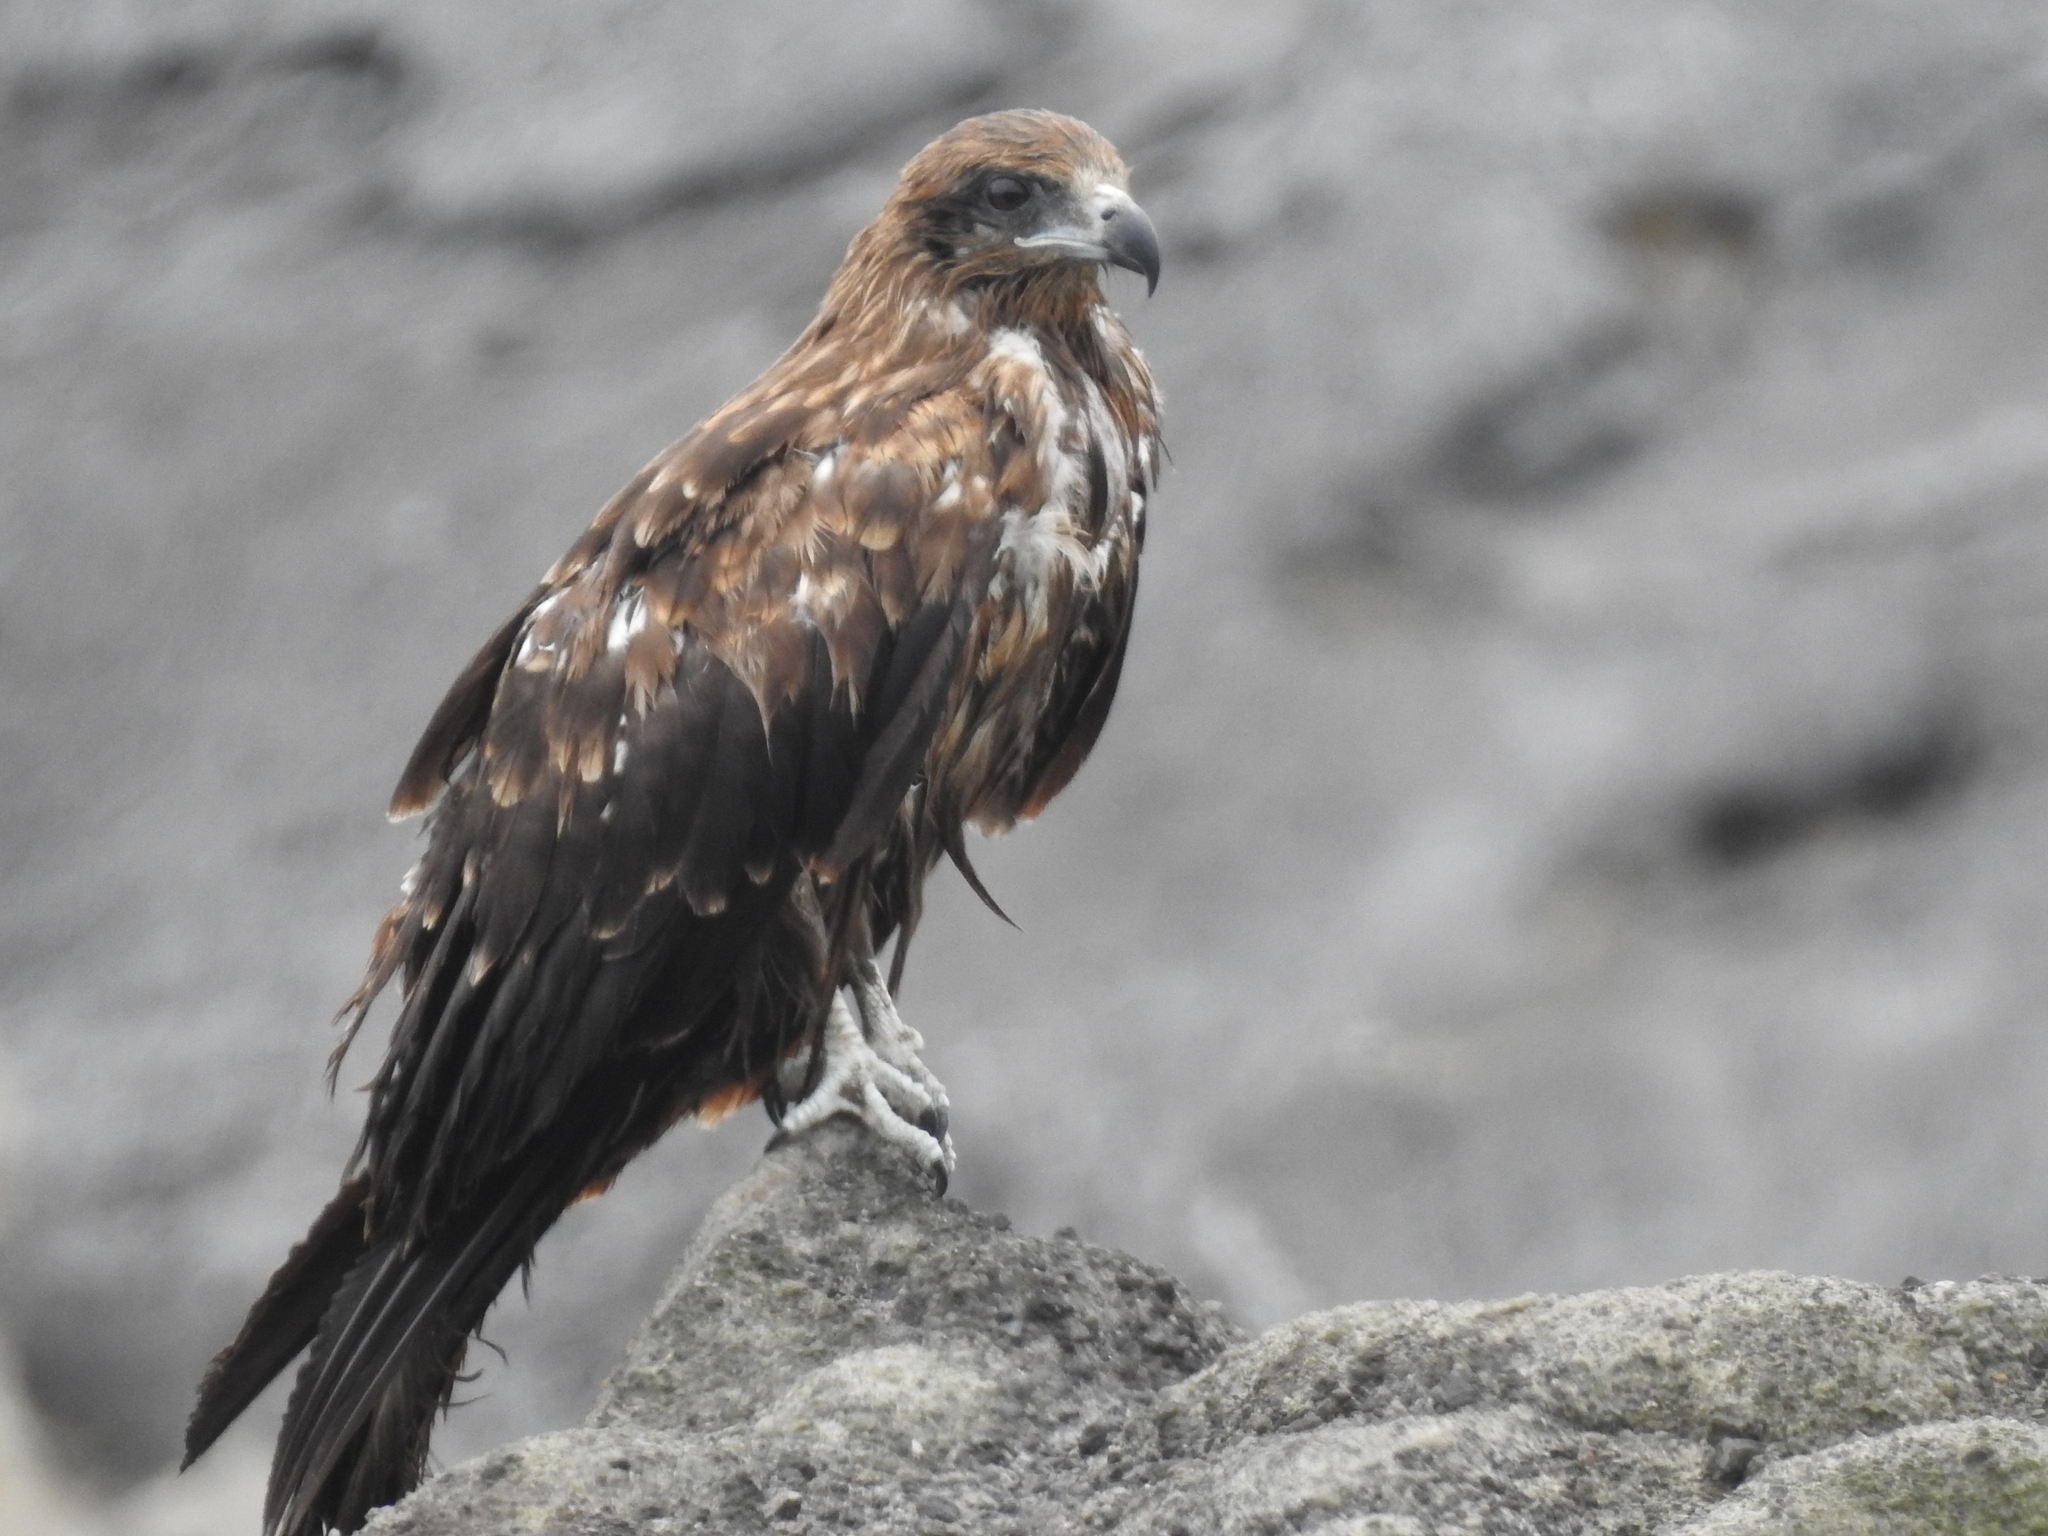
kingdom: Animalia
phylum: Chordata
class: Aves
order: Accipitriformes
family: Accipitridae
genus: Milvus
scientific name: Milvus migrans
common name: Black kite
